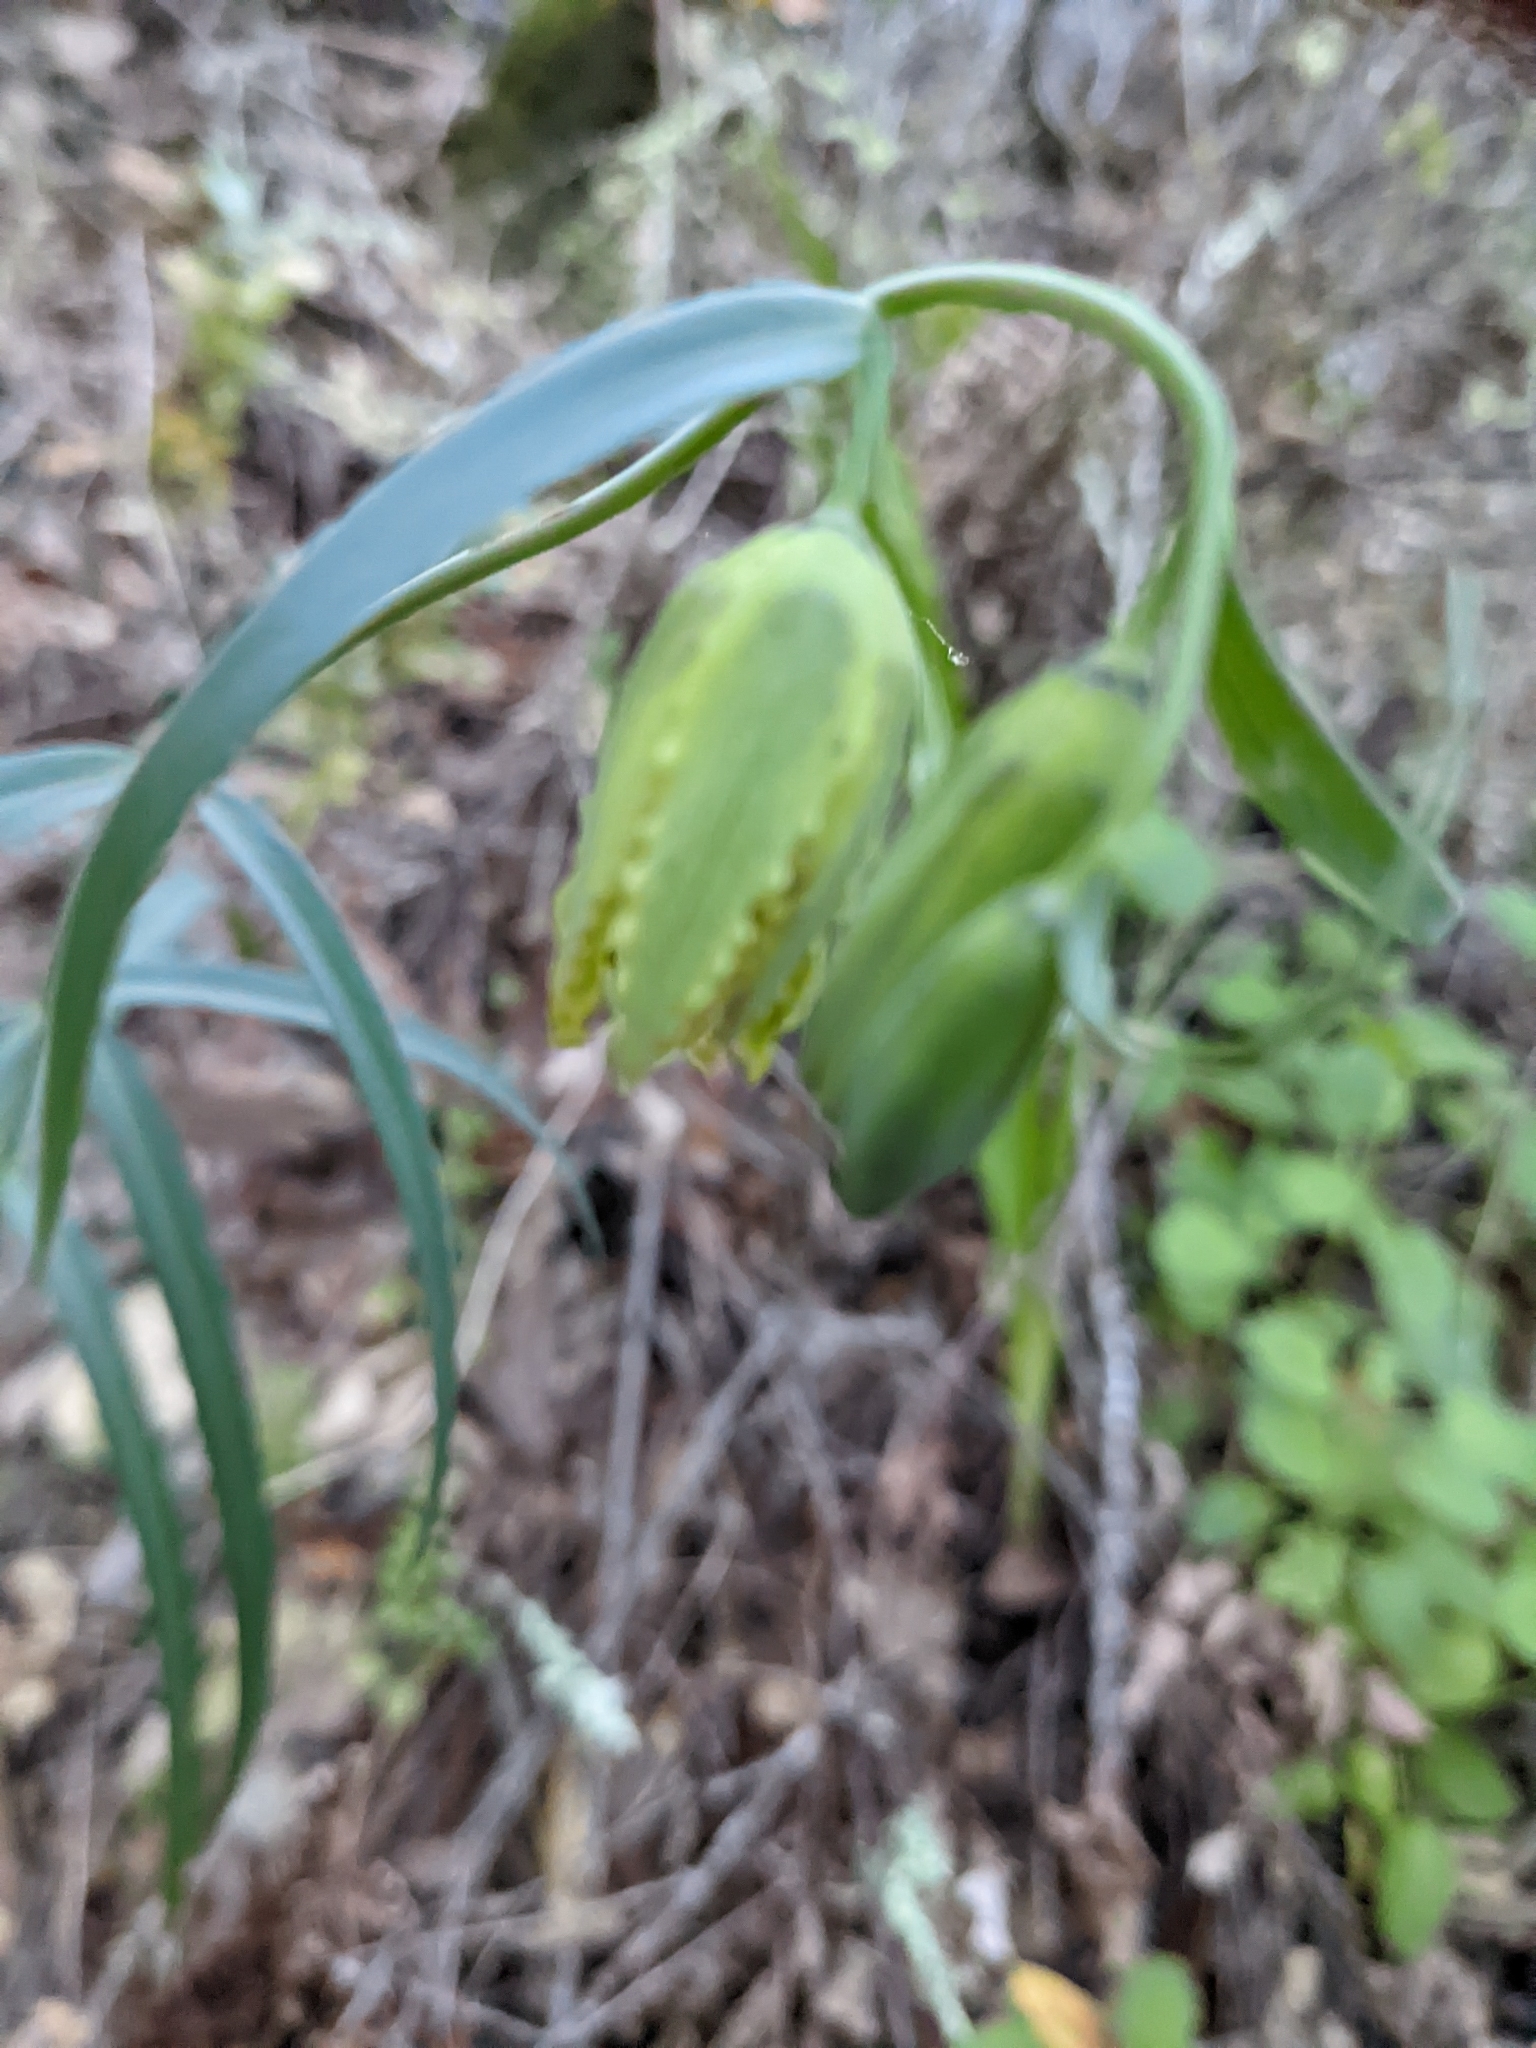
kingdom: Plantae
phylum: Tracheophyta
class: Liliopsida
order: Liliales
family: Liliaceae
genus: Fritillaria
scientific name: Fritillaria affinis
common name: Ojai fritillary
